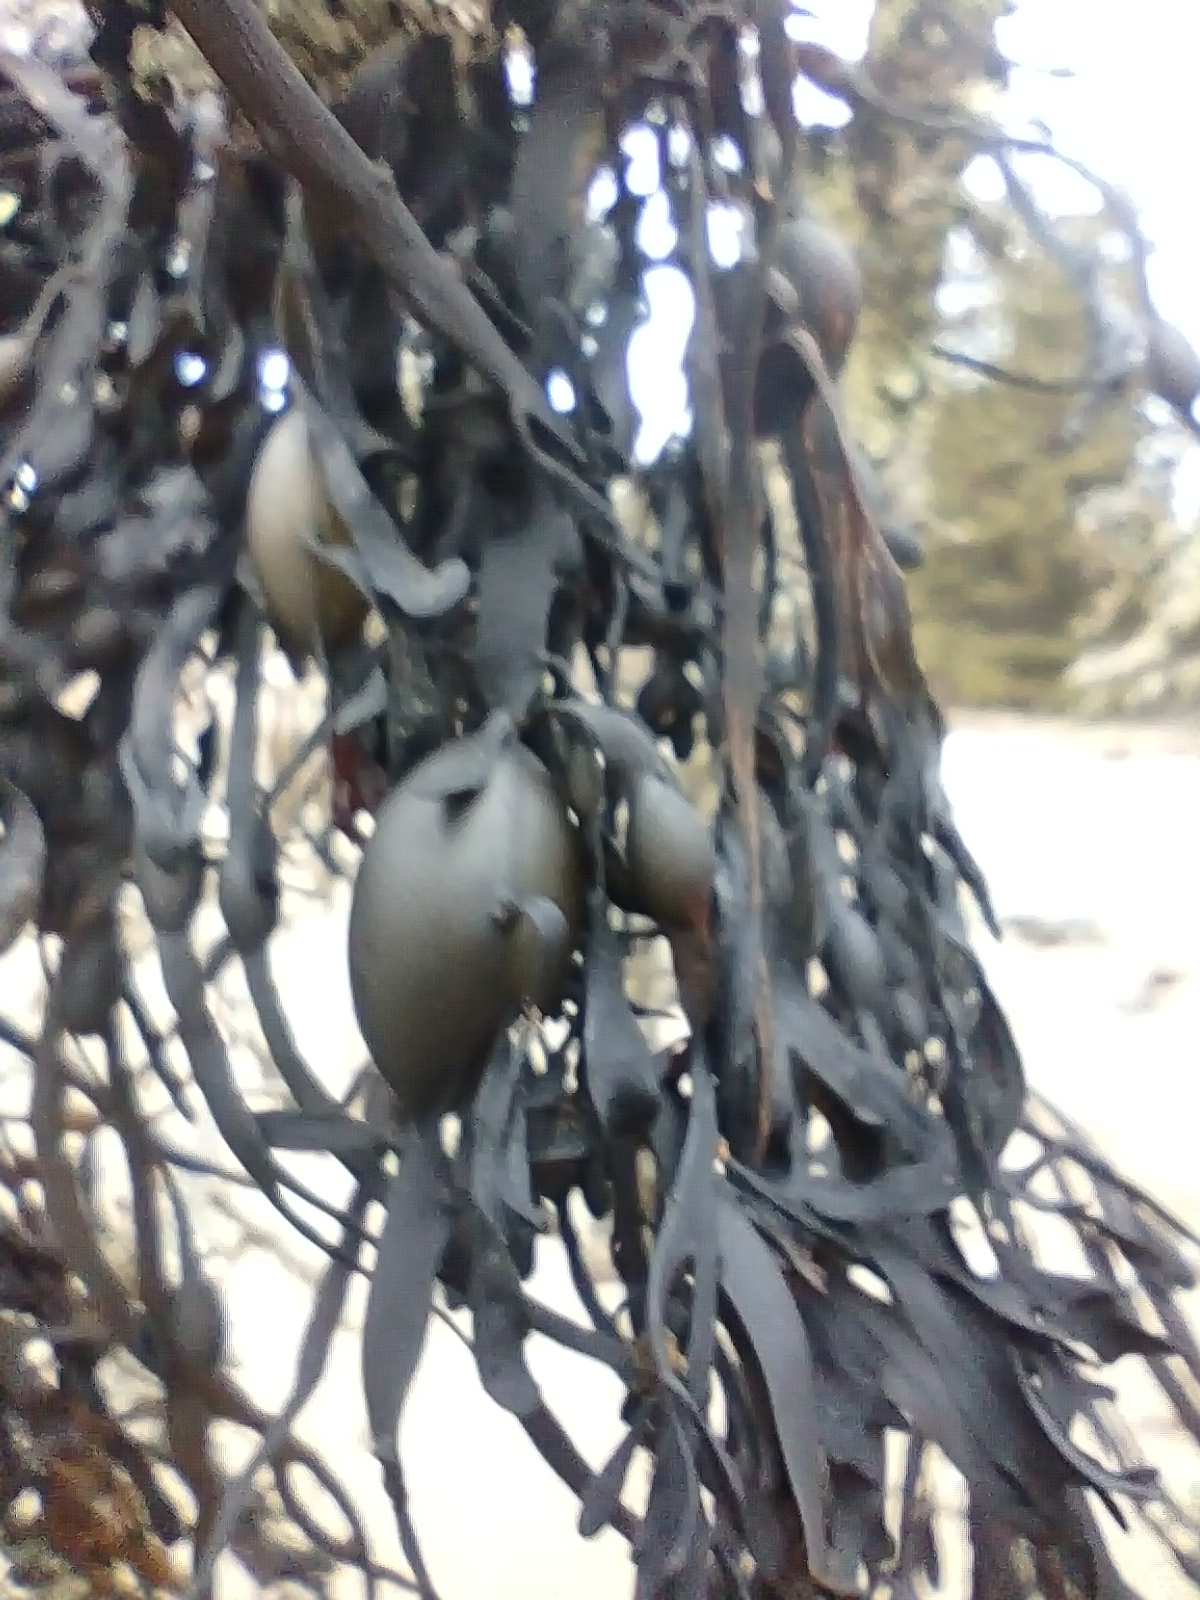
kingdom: Chromista
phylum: Ochrophyta
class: Phaeophyceae
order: Fucales
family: Fucaceae
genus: Ascophyllum
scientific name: Ascophyllum nodosum
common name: Knotted wrack
